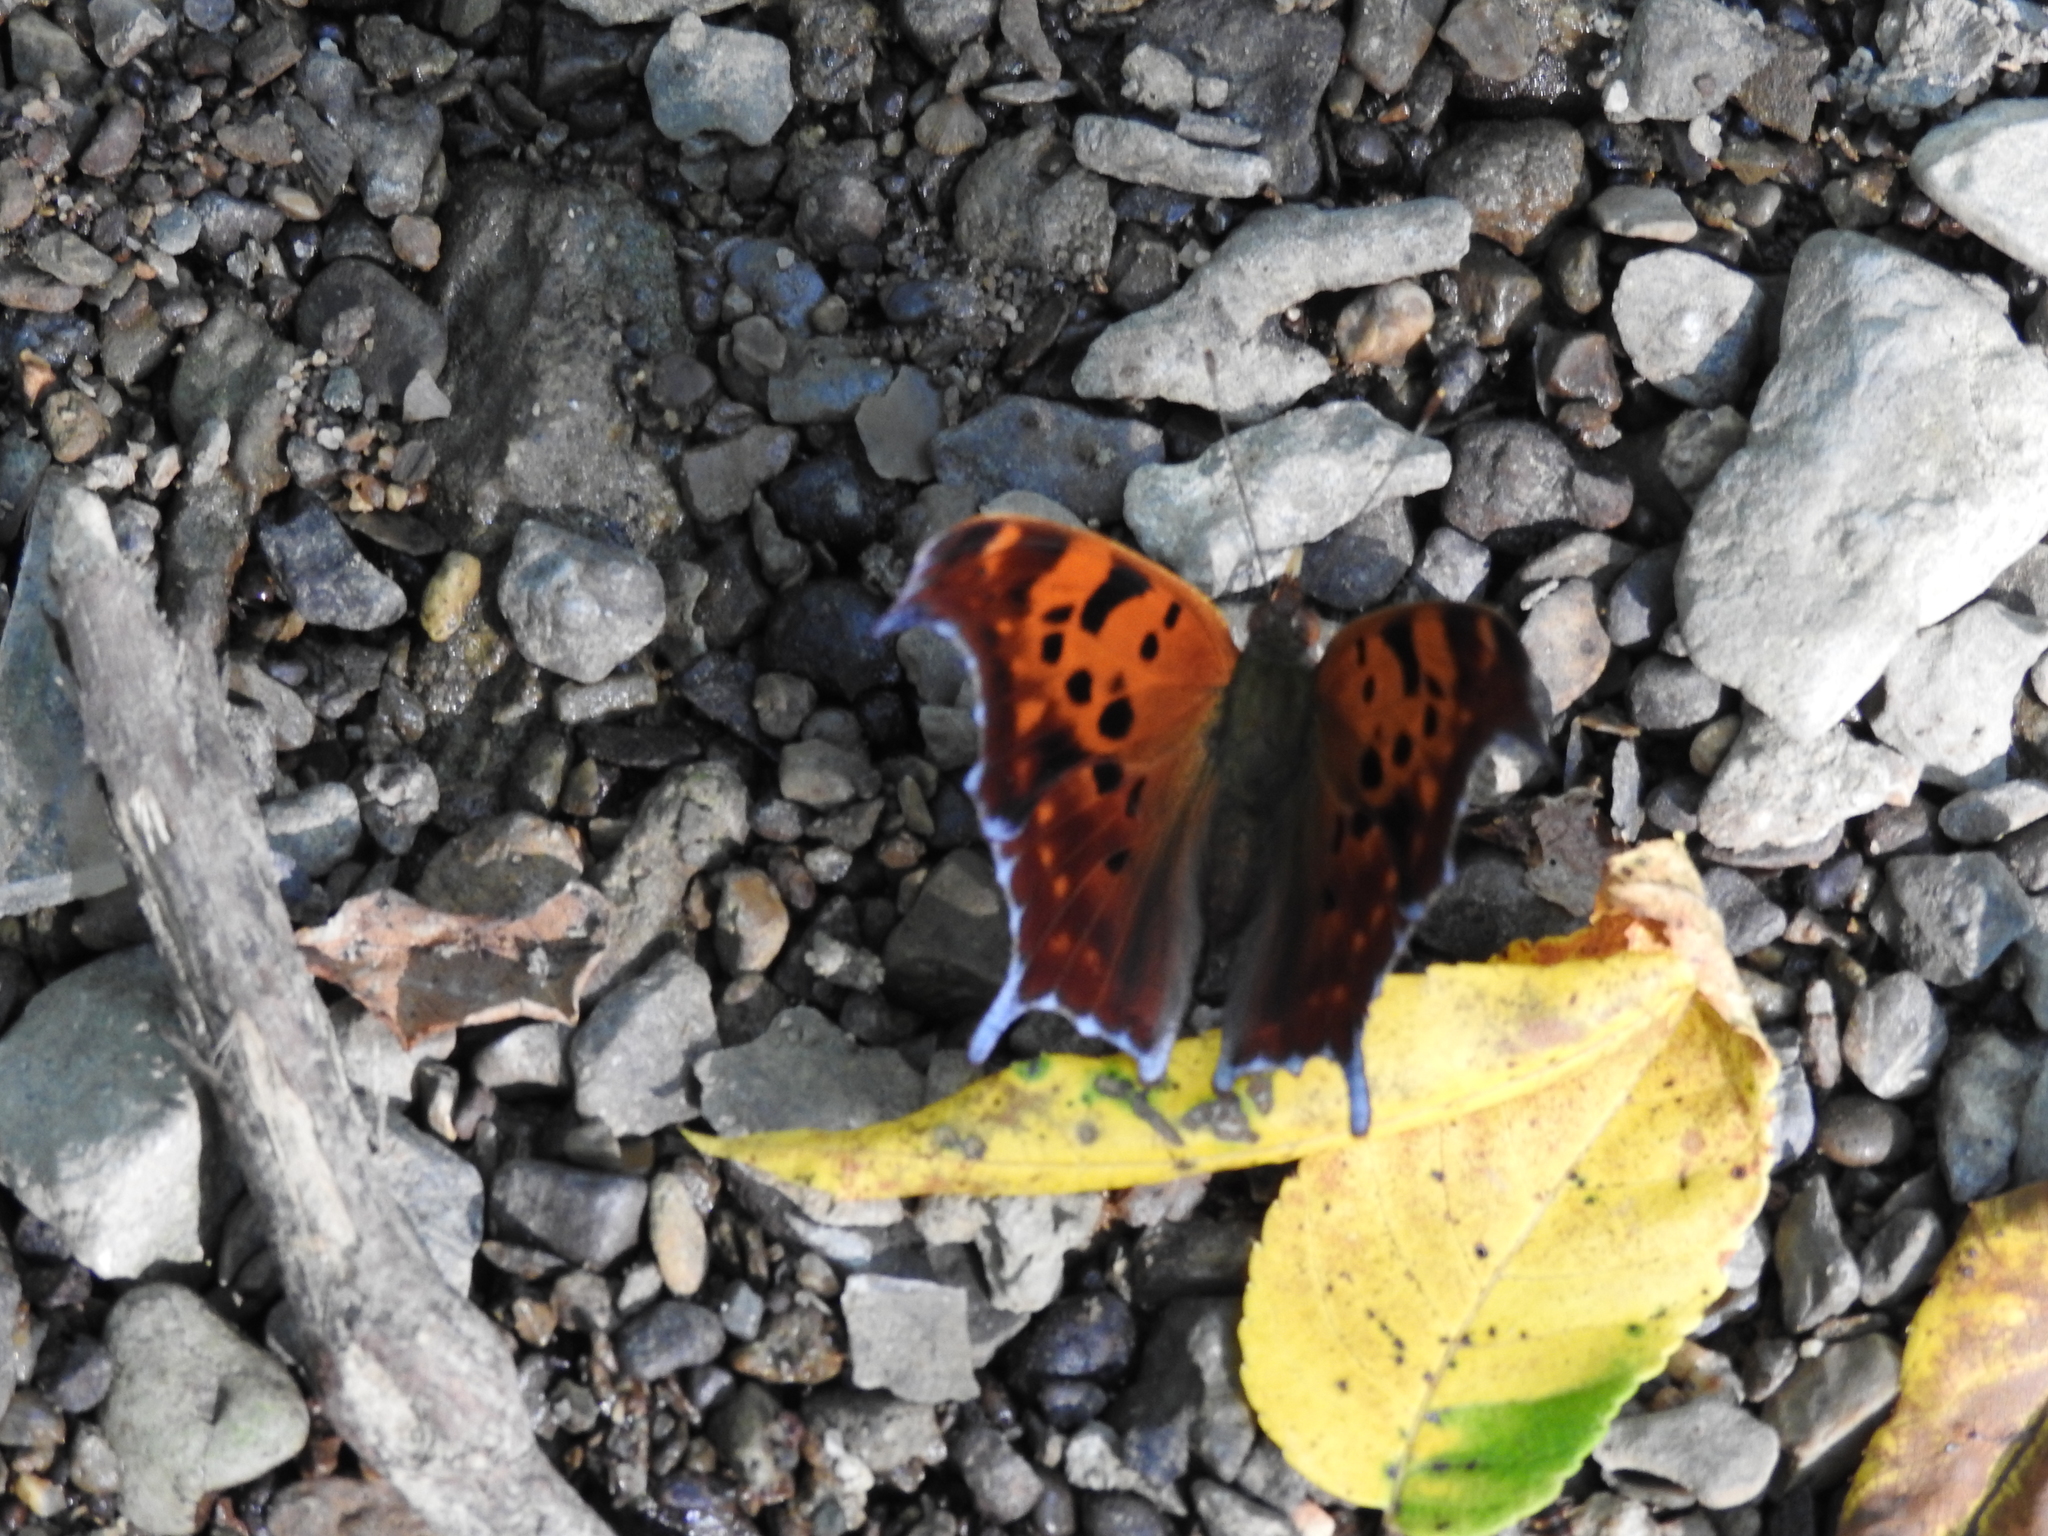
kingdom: Animalia
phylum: Arthropoda
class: Insecta
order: Lepidoptera
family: Nymphalidae
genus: Polygonia
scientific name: Polygonia interrogationis
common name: Question mark
